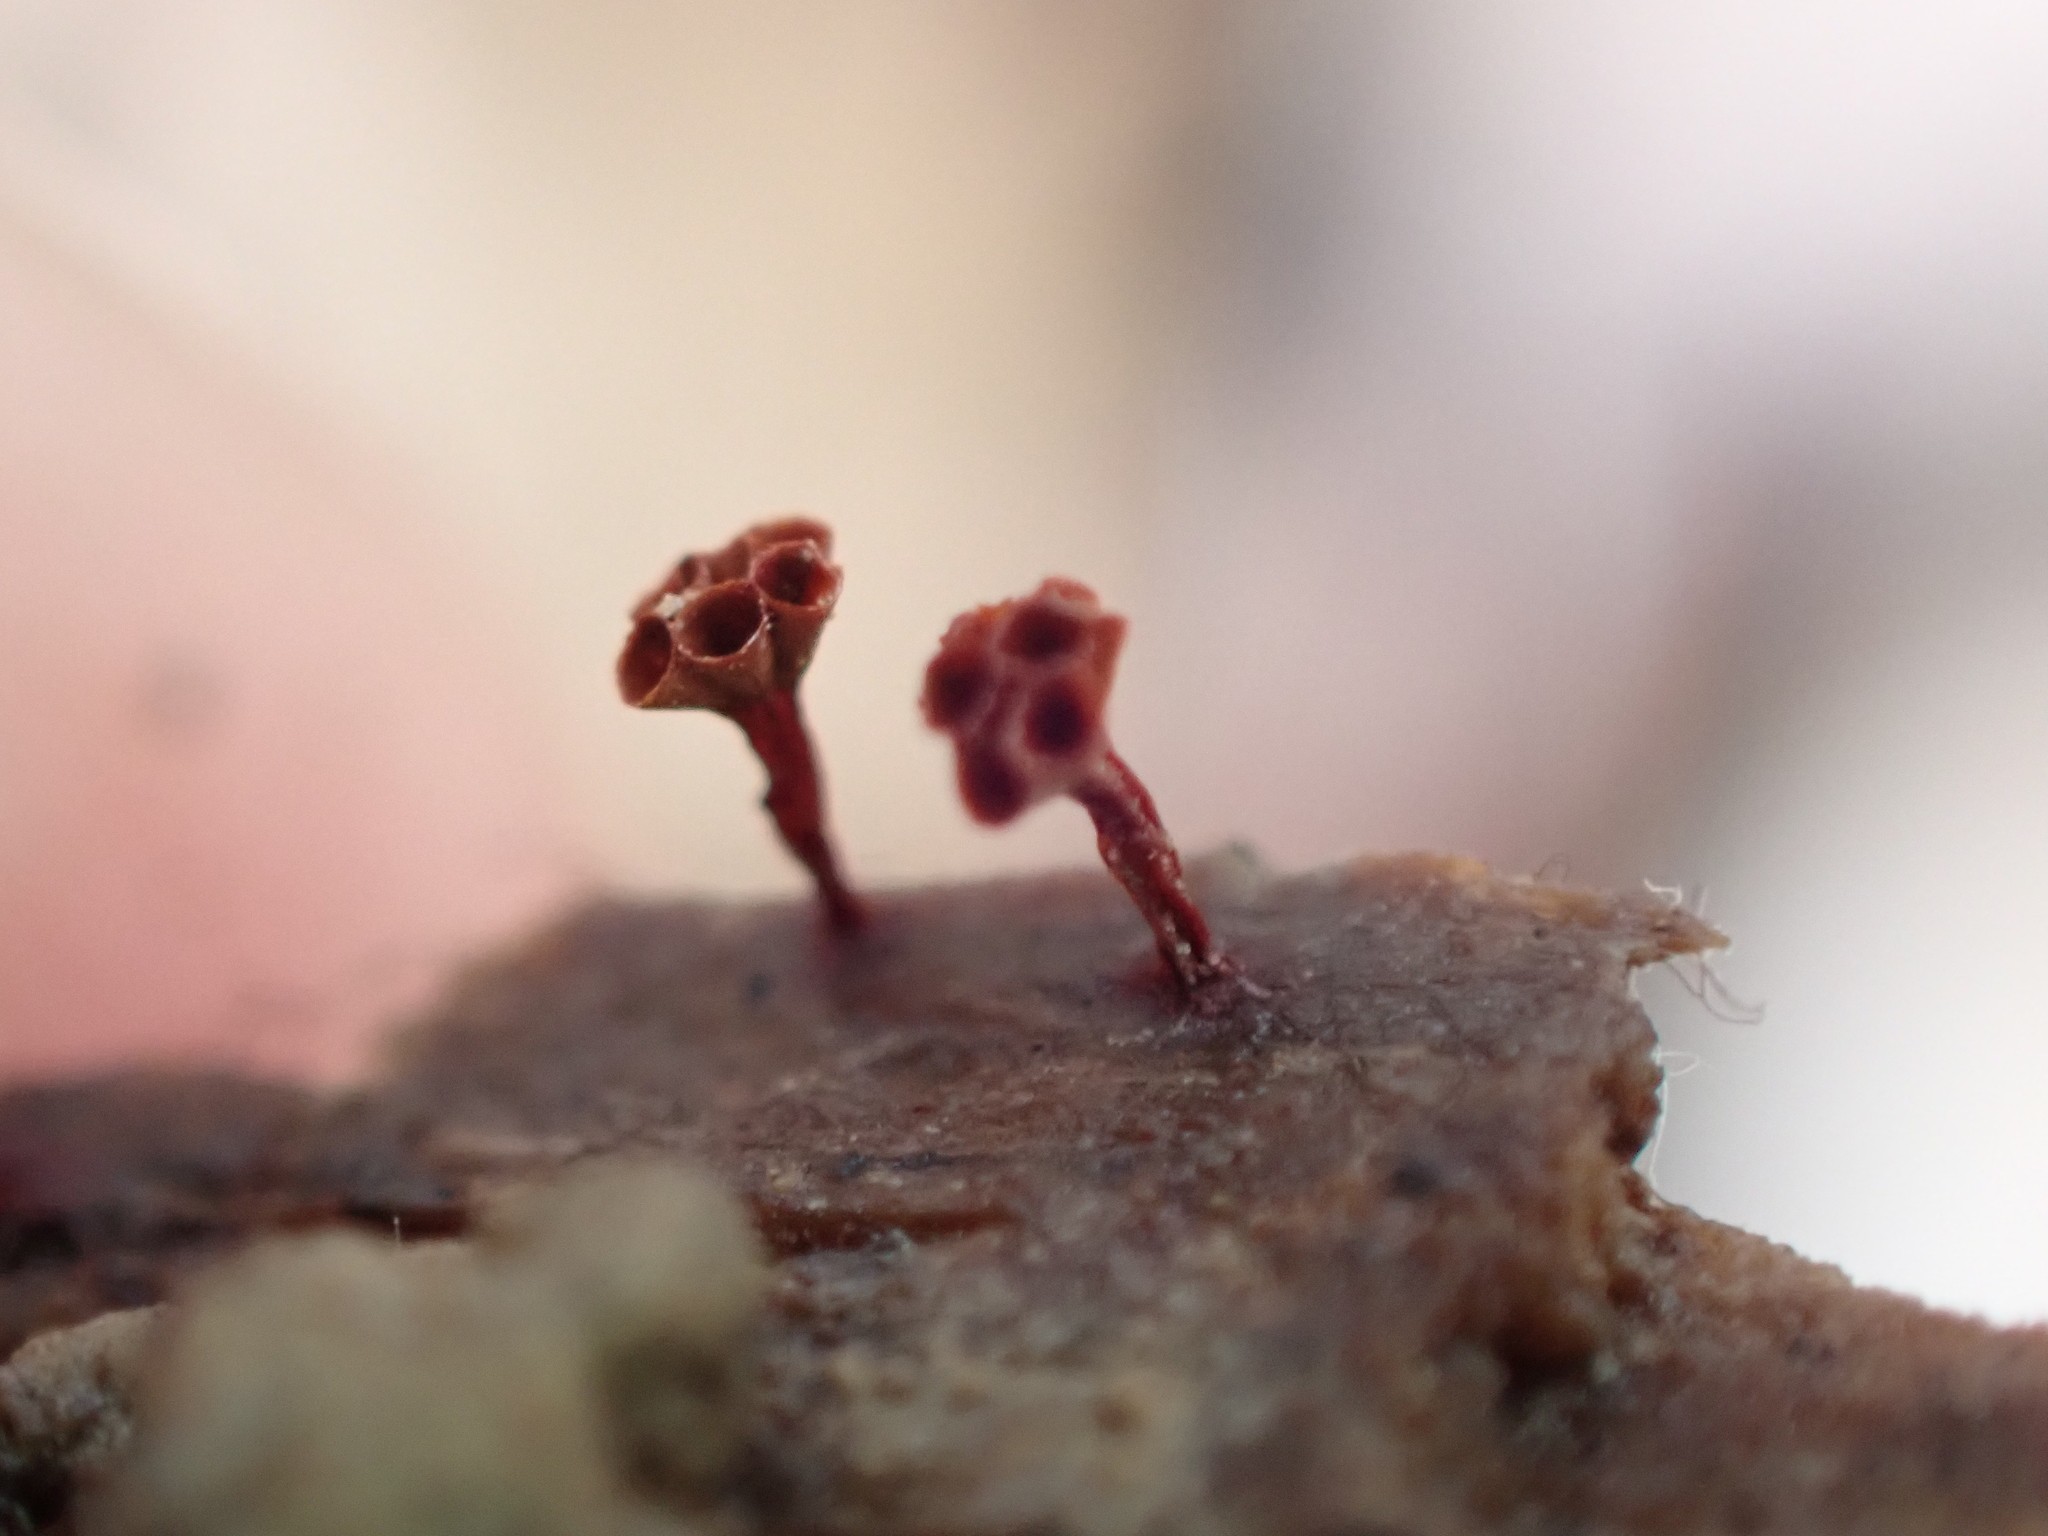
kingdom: Protozoa
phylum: Mycetozoa
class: Myxomycetes
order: Trichiales
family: Trichiaceae
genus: Metatrichia
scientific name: Metatrichia vesparia
